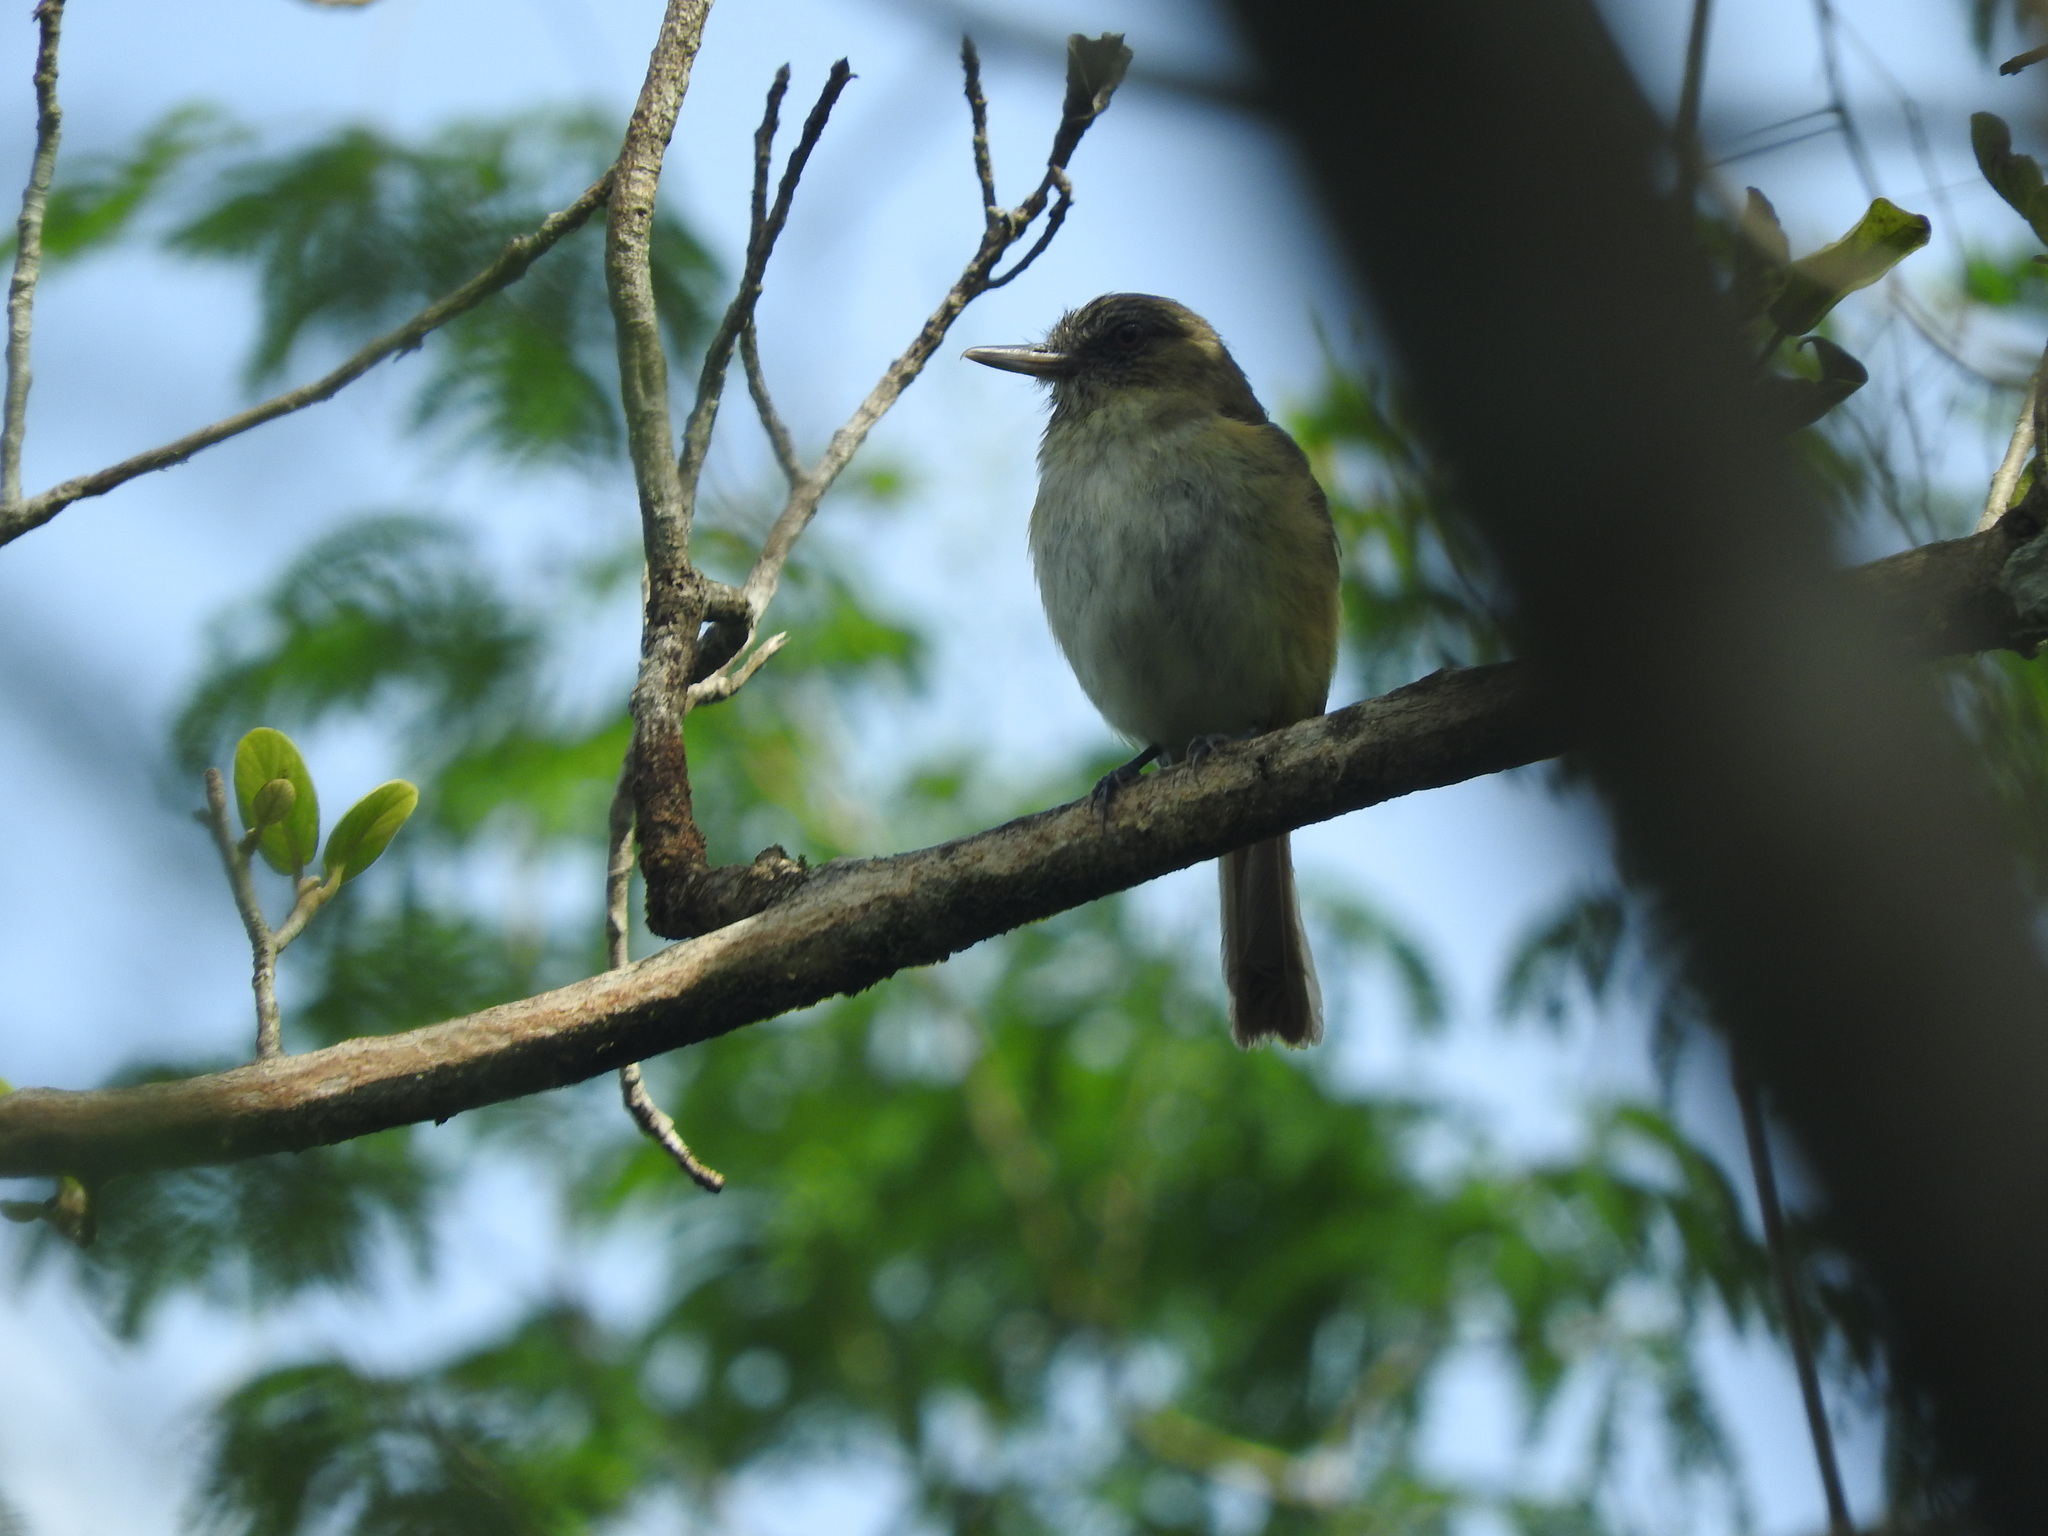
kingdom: Animalia
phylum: Chordata
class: Aves
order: Passeriformes
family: Tyrannidae
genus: Attila
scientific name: Attila spadiceus
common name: Bright-rumped attila
